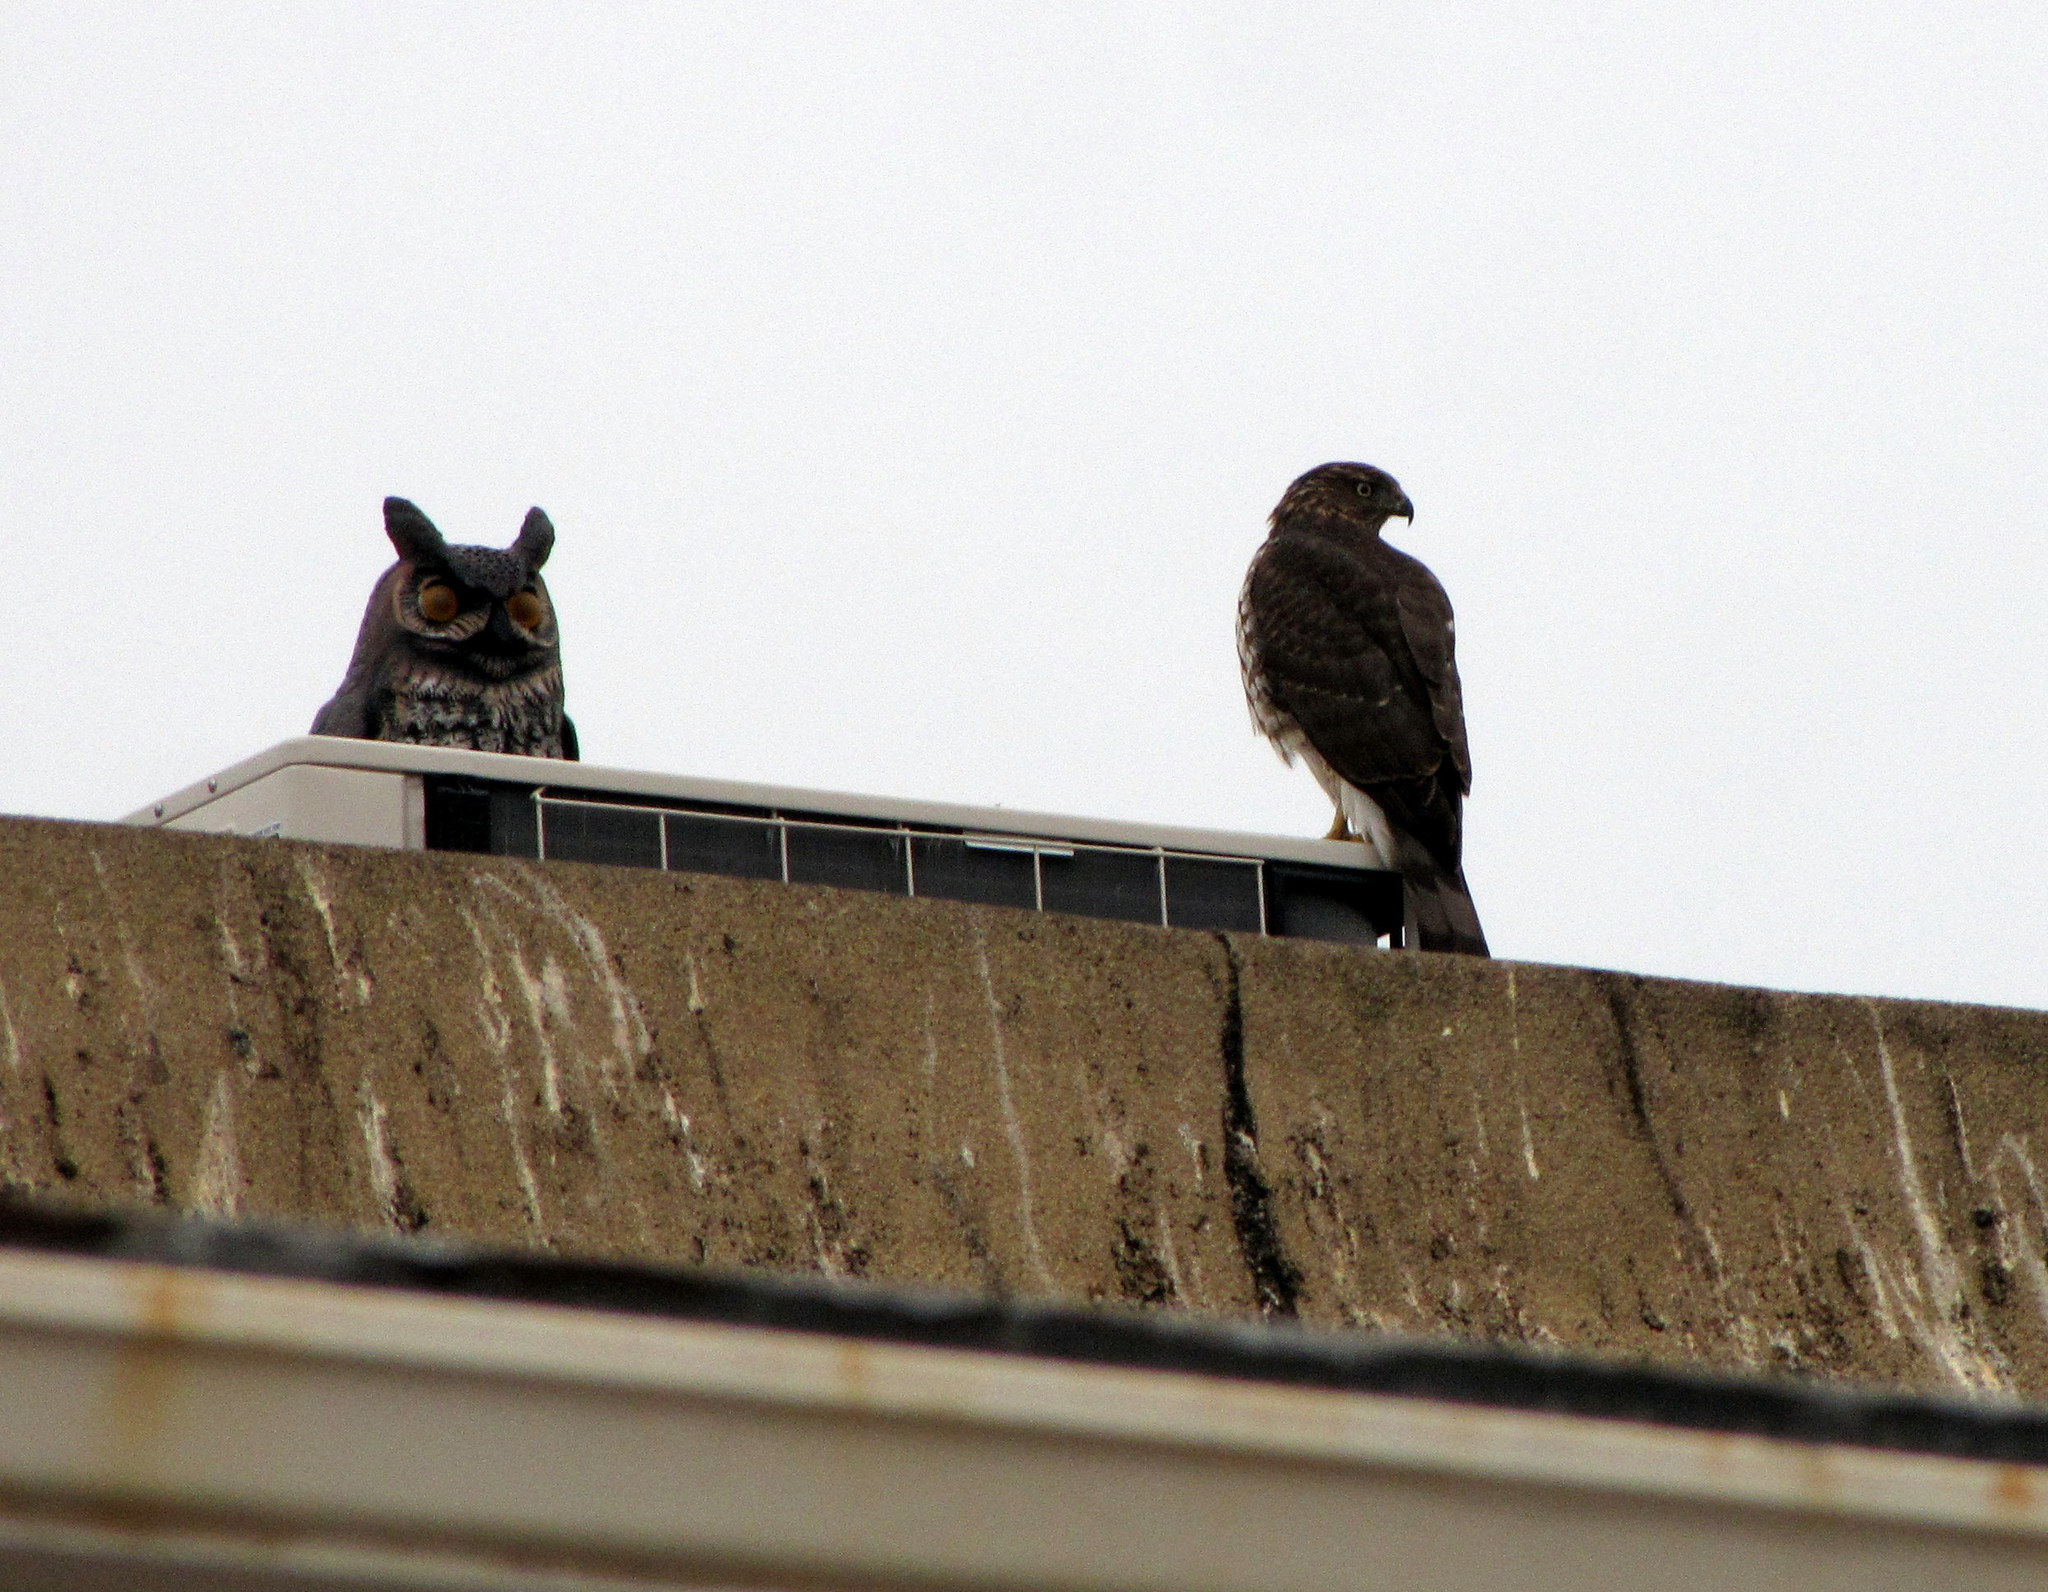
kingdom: Animalia
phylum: Chordata
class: Aves
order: Accipitriformes
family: Accipitridae
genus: Accipiter
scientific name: Accipiter cooperii
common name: Cooper's hawk
